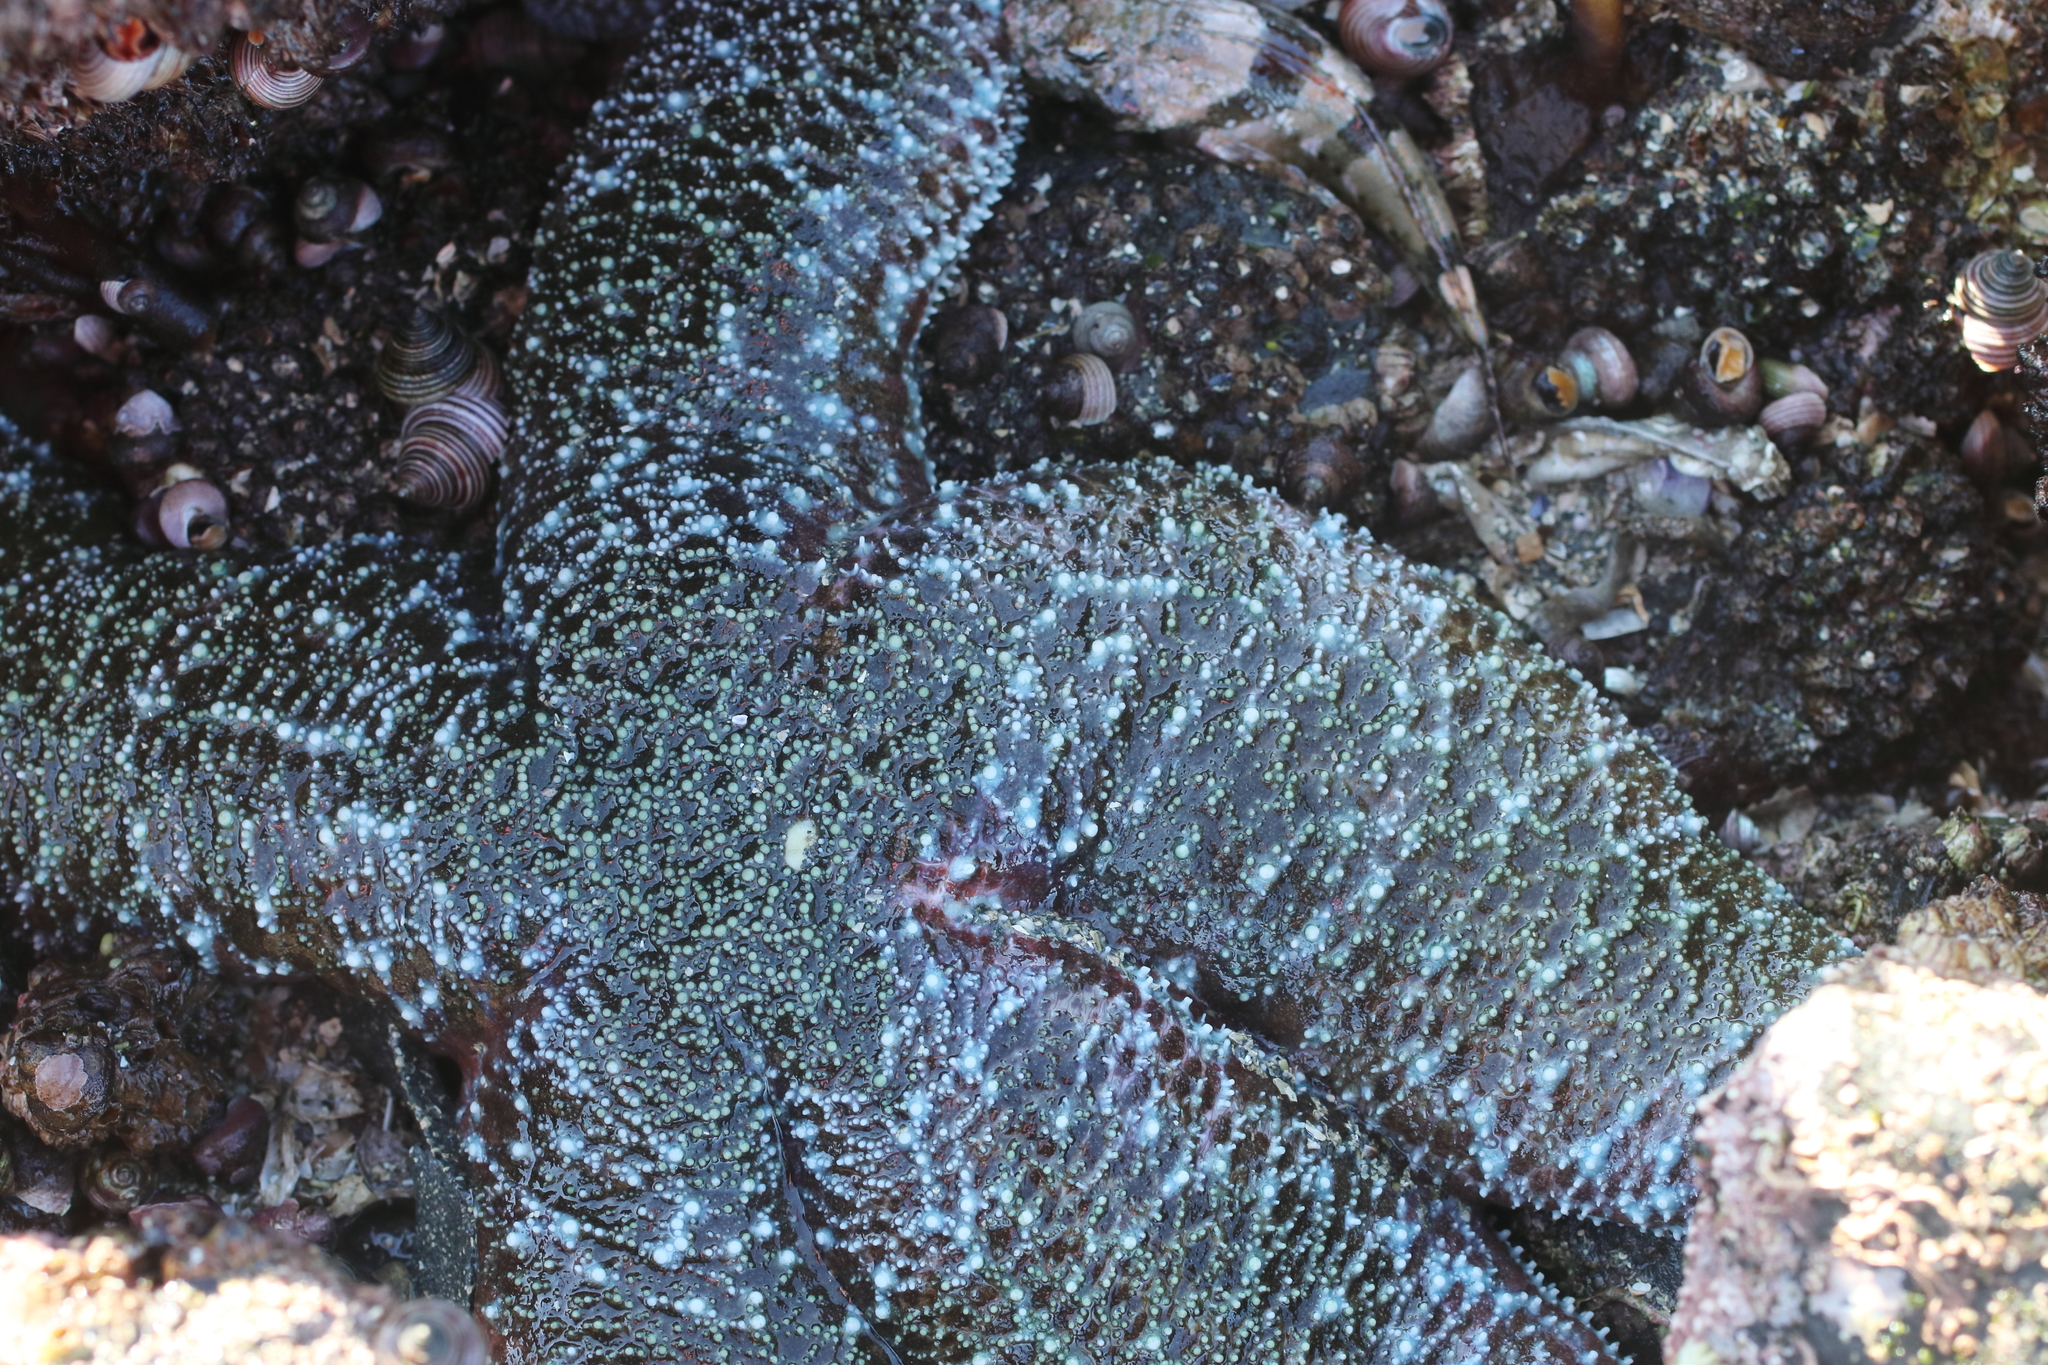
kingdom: Animalia
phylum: Echinodermata
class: Asteroidea
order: Forcipulatida
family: Asteriidae
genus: Evasterias
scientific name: Evasterias troschelii
